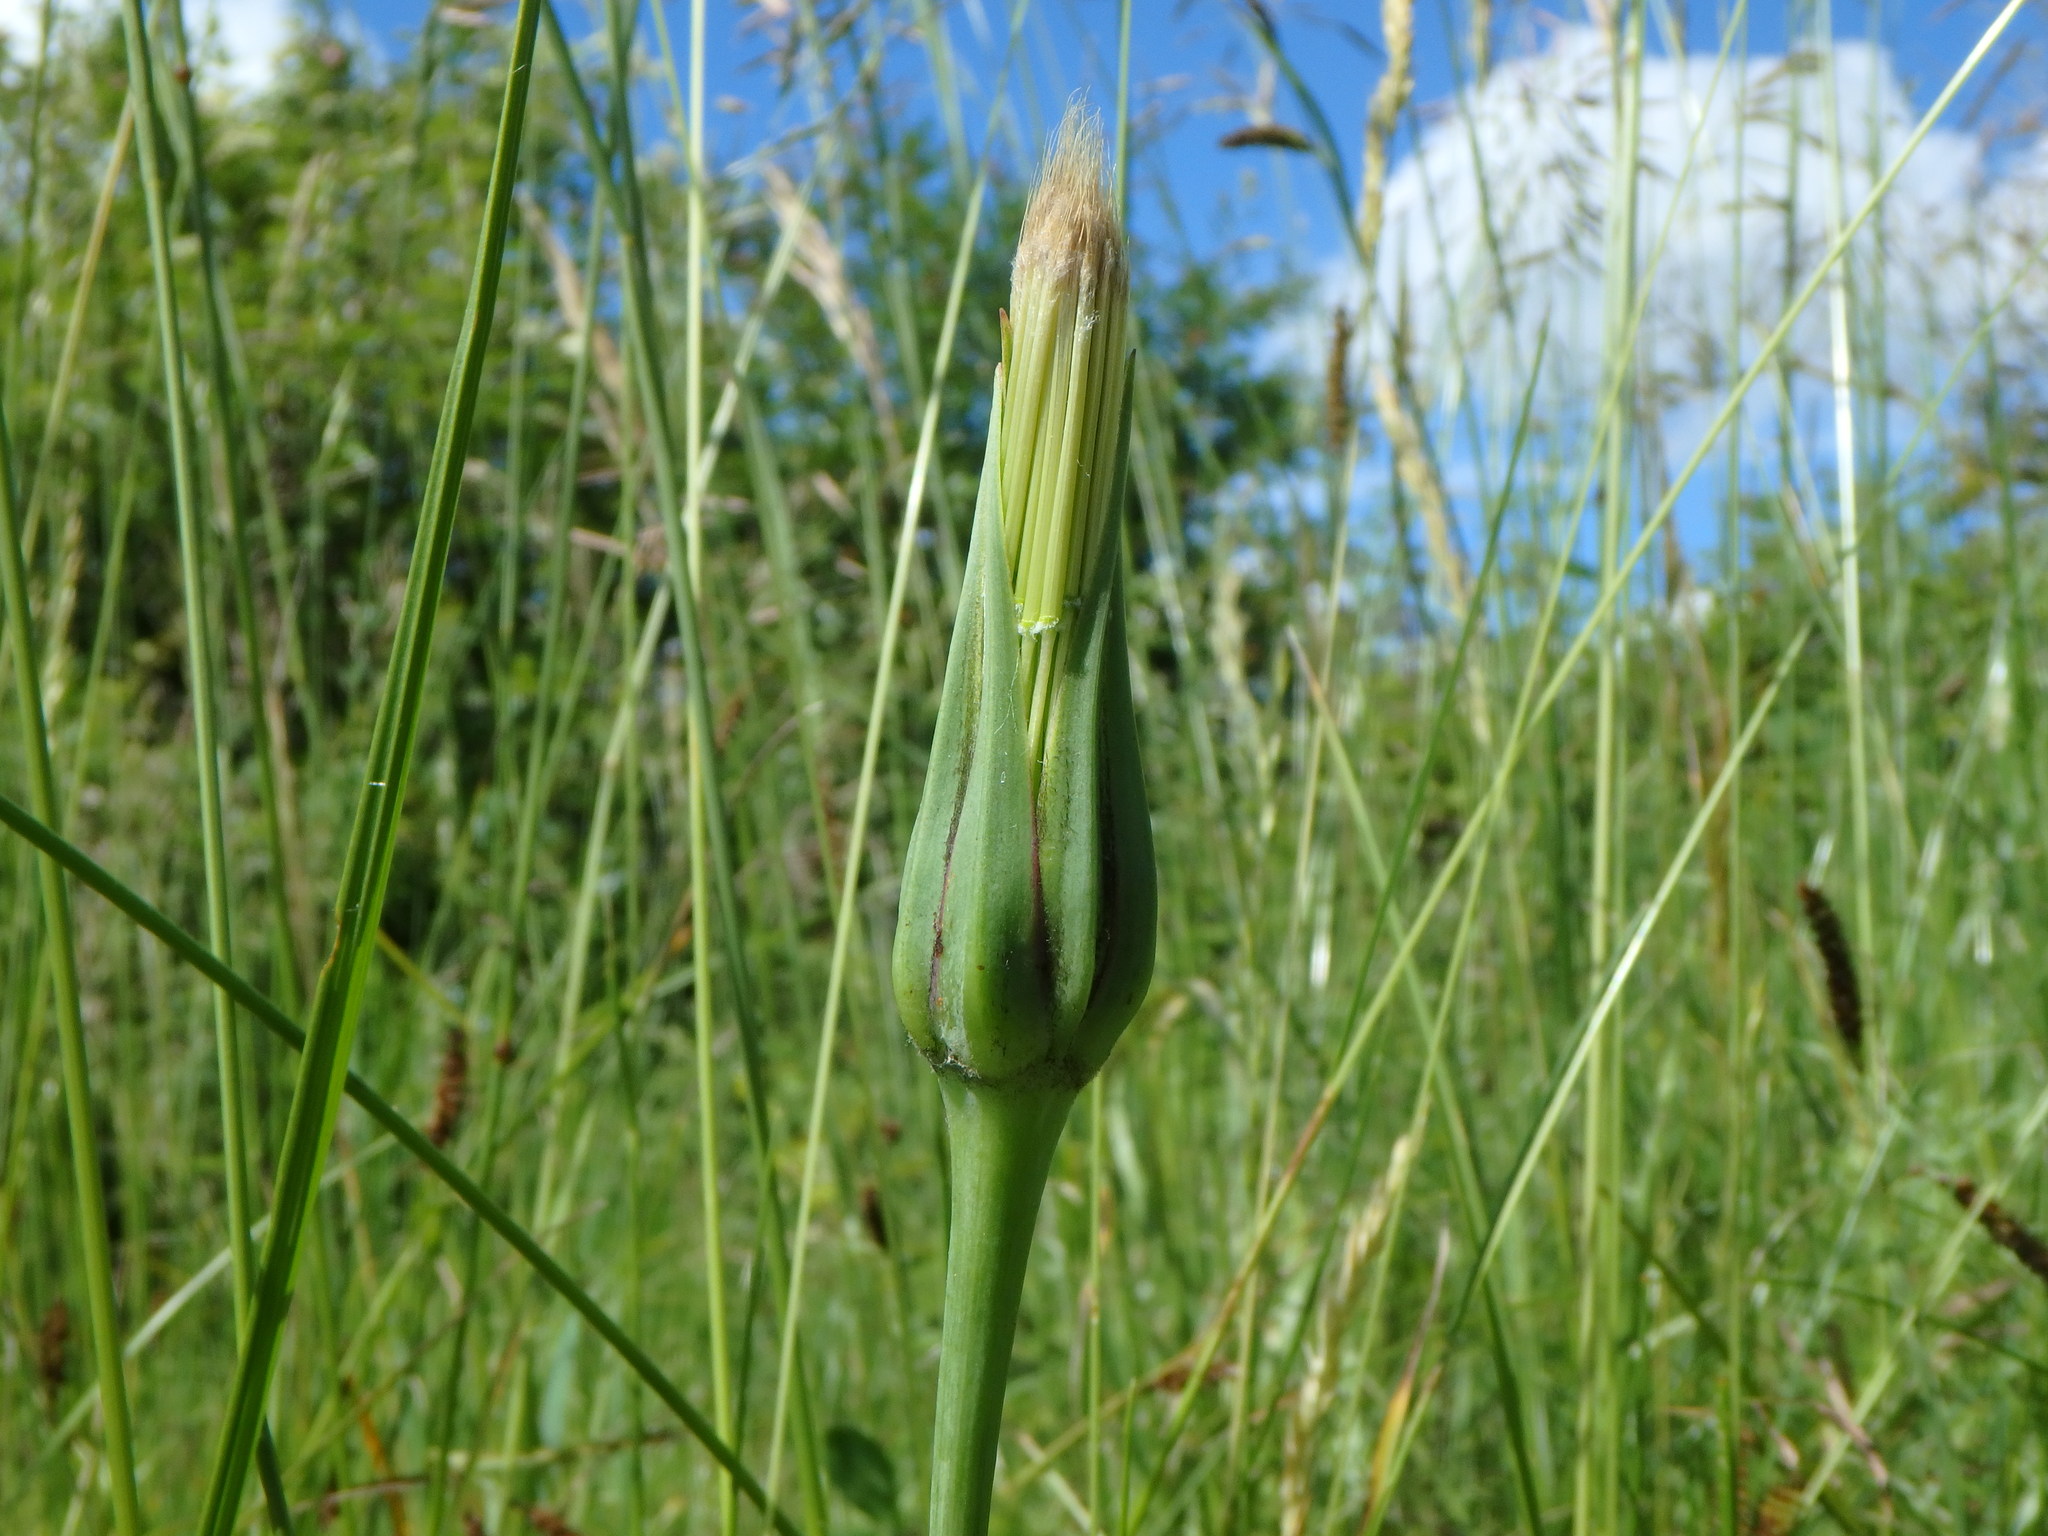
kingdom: Plantae
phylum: Tracheophyta
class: Magnoliopsida
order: Asterales
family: Asteraceae
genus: Tragopogon
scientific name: Tragopogon pratensis
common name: Goat's-beard
